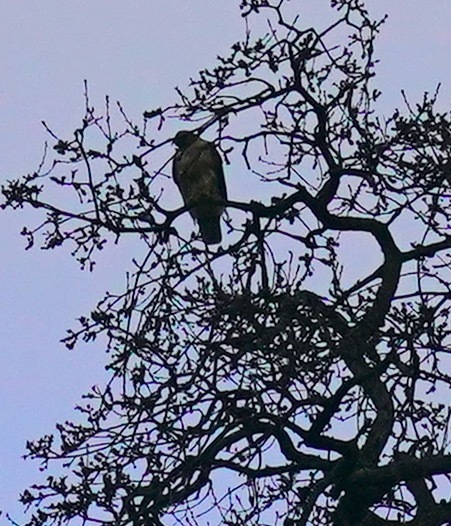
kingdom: Animalia
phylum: Chordata
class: Aves
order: Accipitriformes
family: Accipitridae
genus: Buteo
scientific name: Buteo jamaicensis
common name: Red-tailed hawk
